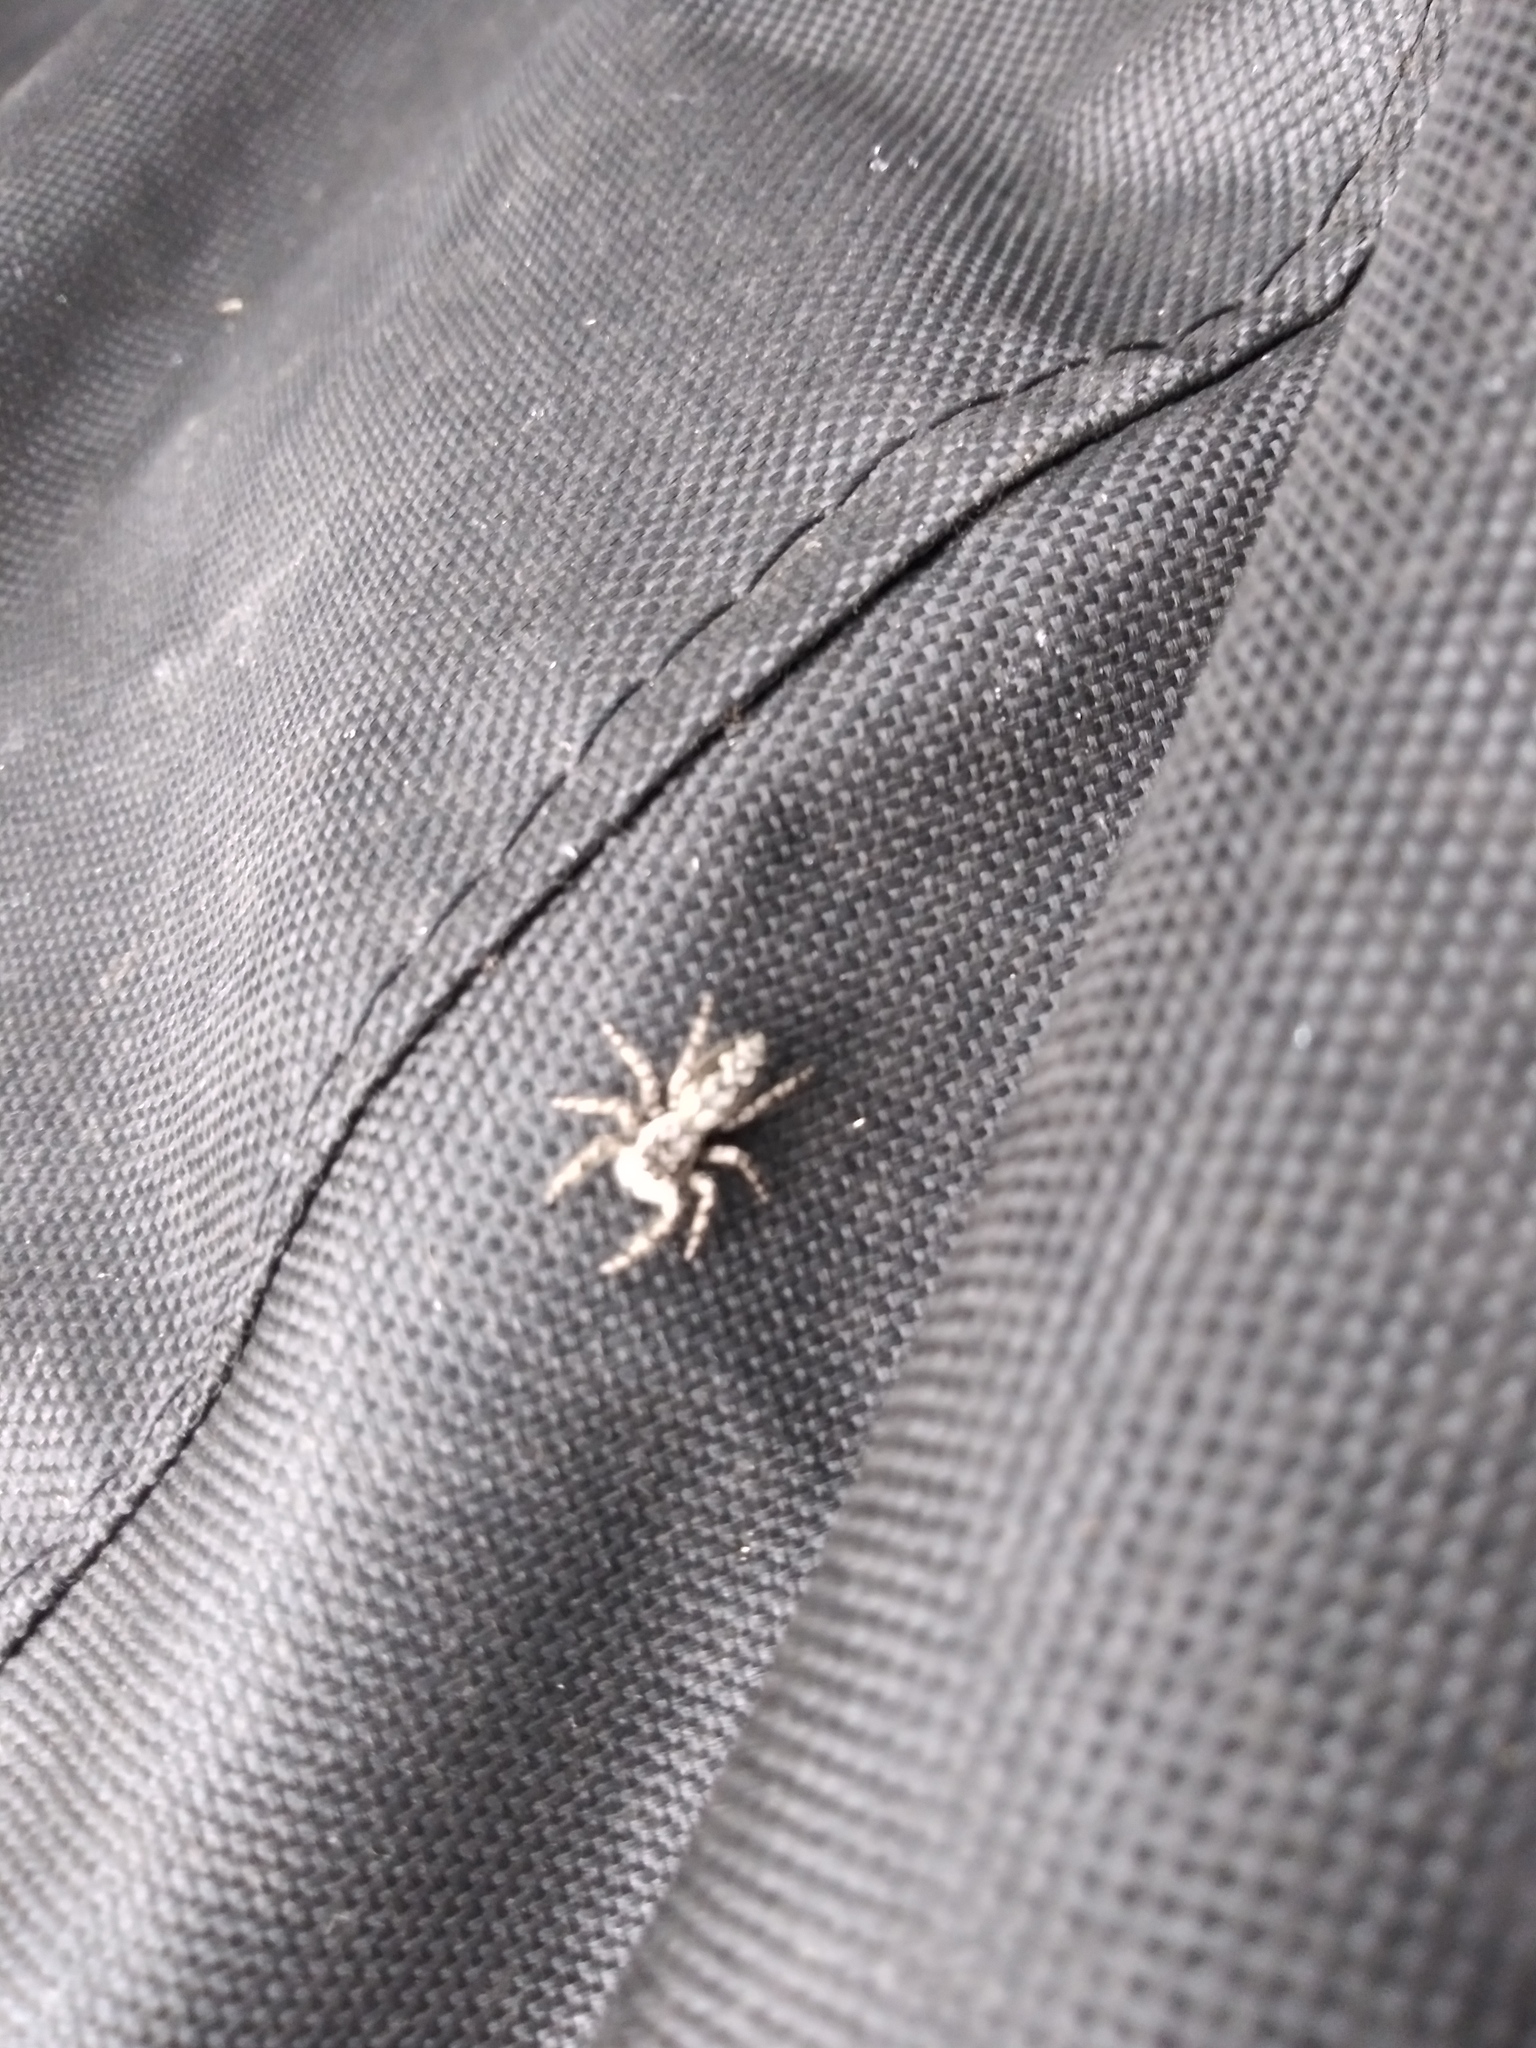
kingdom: Animalia
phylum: Arthropoda
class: Arachnida
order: Araneae
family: Salticidae
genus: Platycryptus
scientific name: Platycryptus undatus
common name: Tan jumping spider
